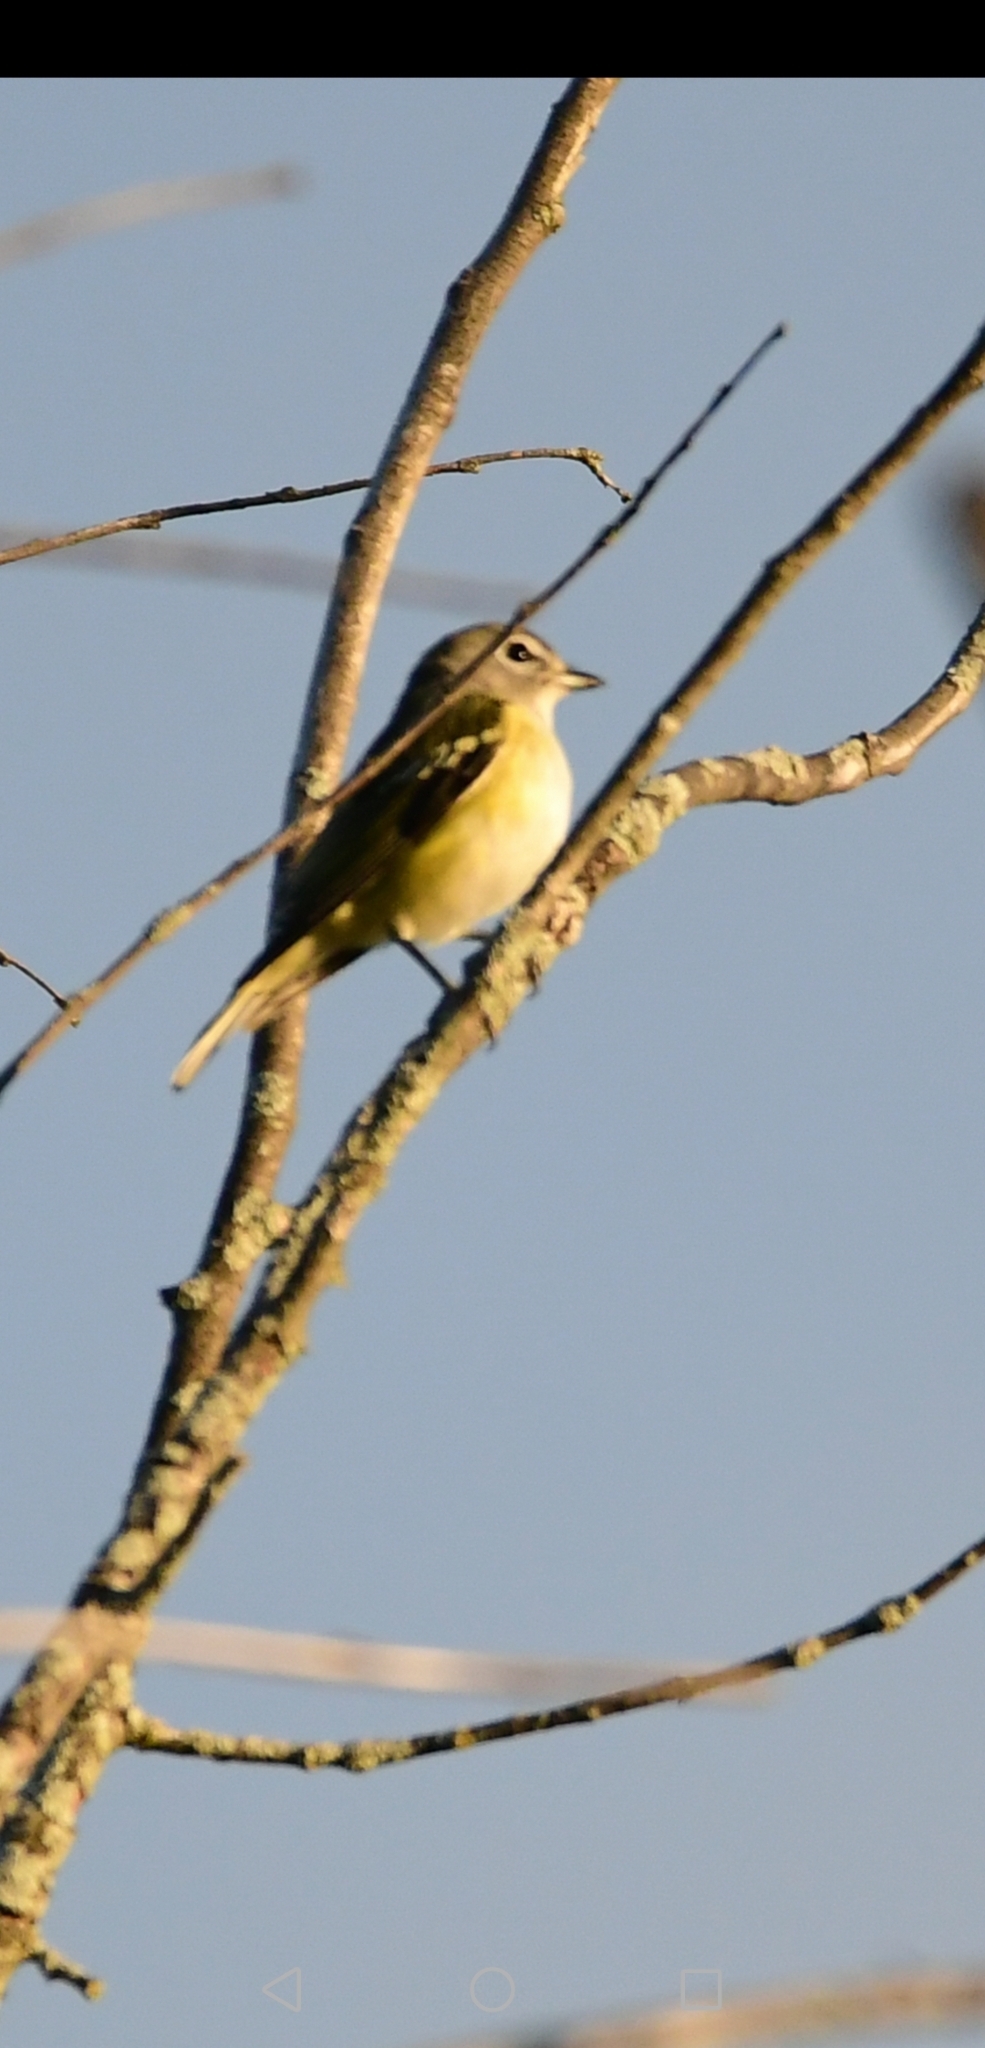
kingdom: Animalia
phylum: Chordata
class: Aves
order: Passeriformes
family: Vireonidae
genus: Vireo
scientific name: Vireo solitarius
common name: Blue-headed vireo
